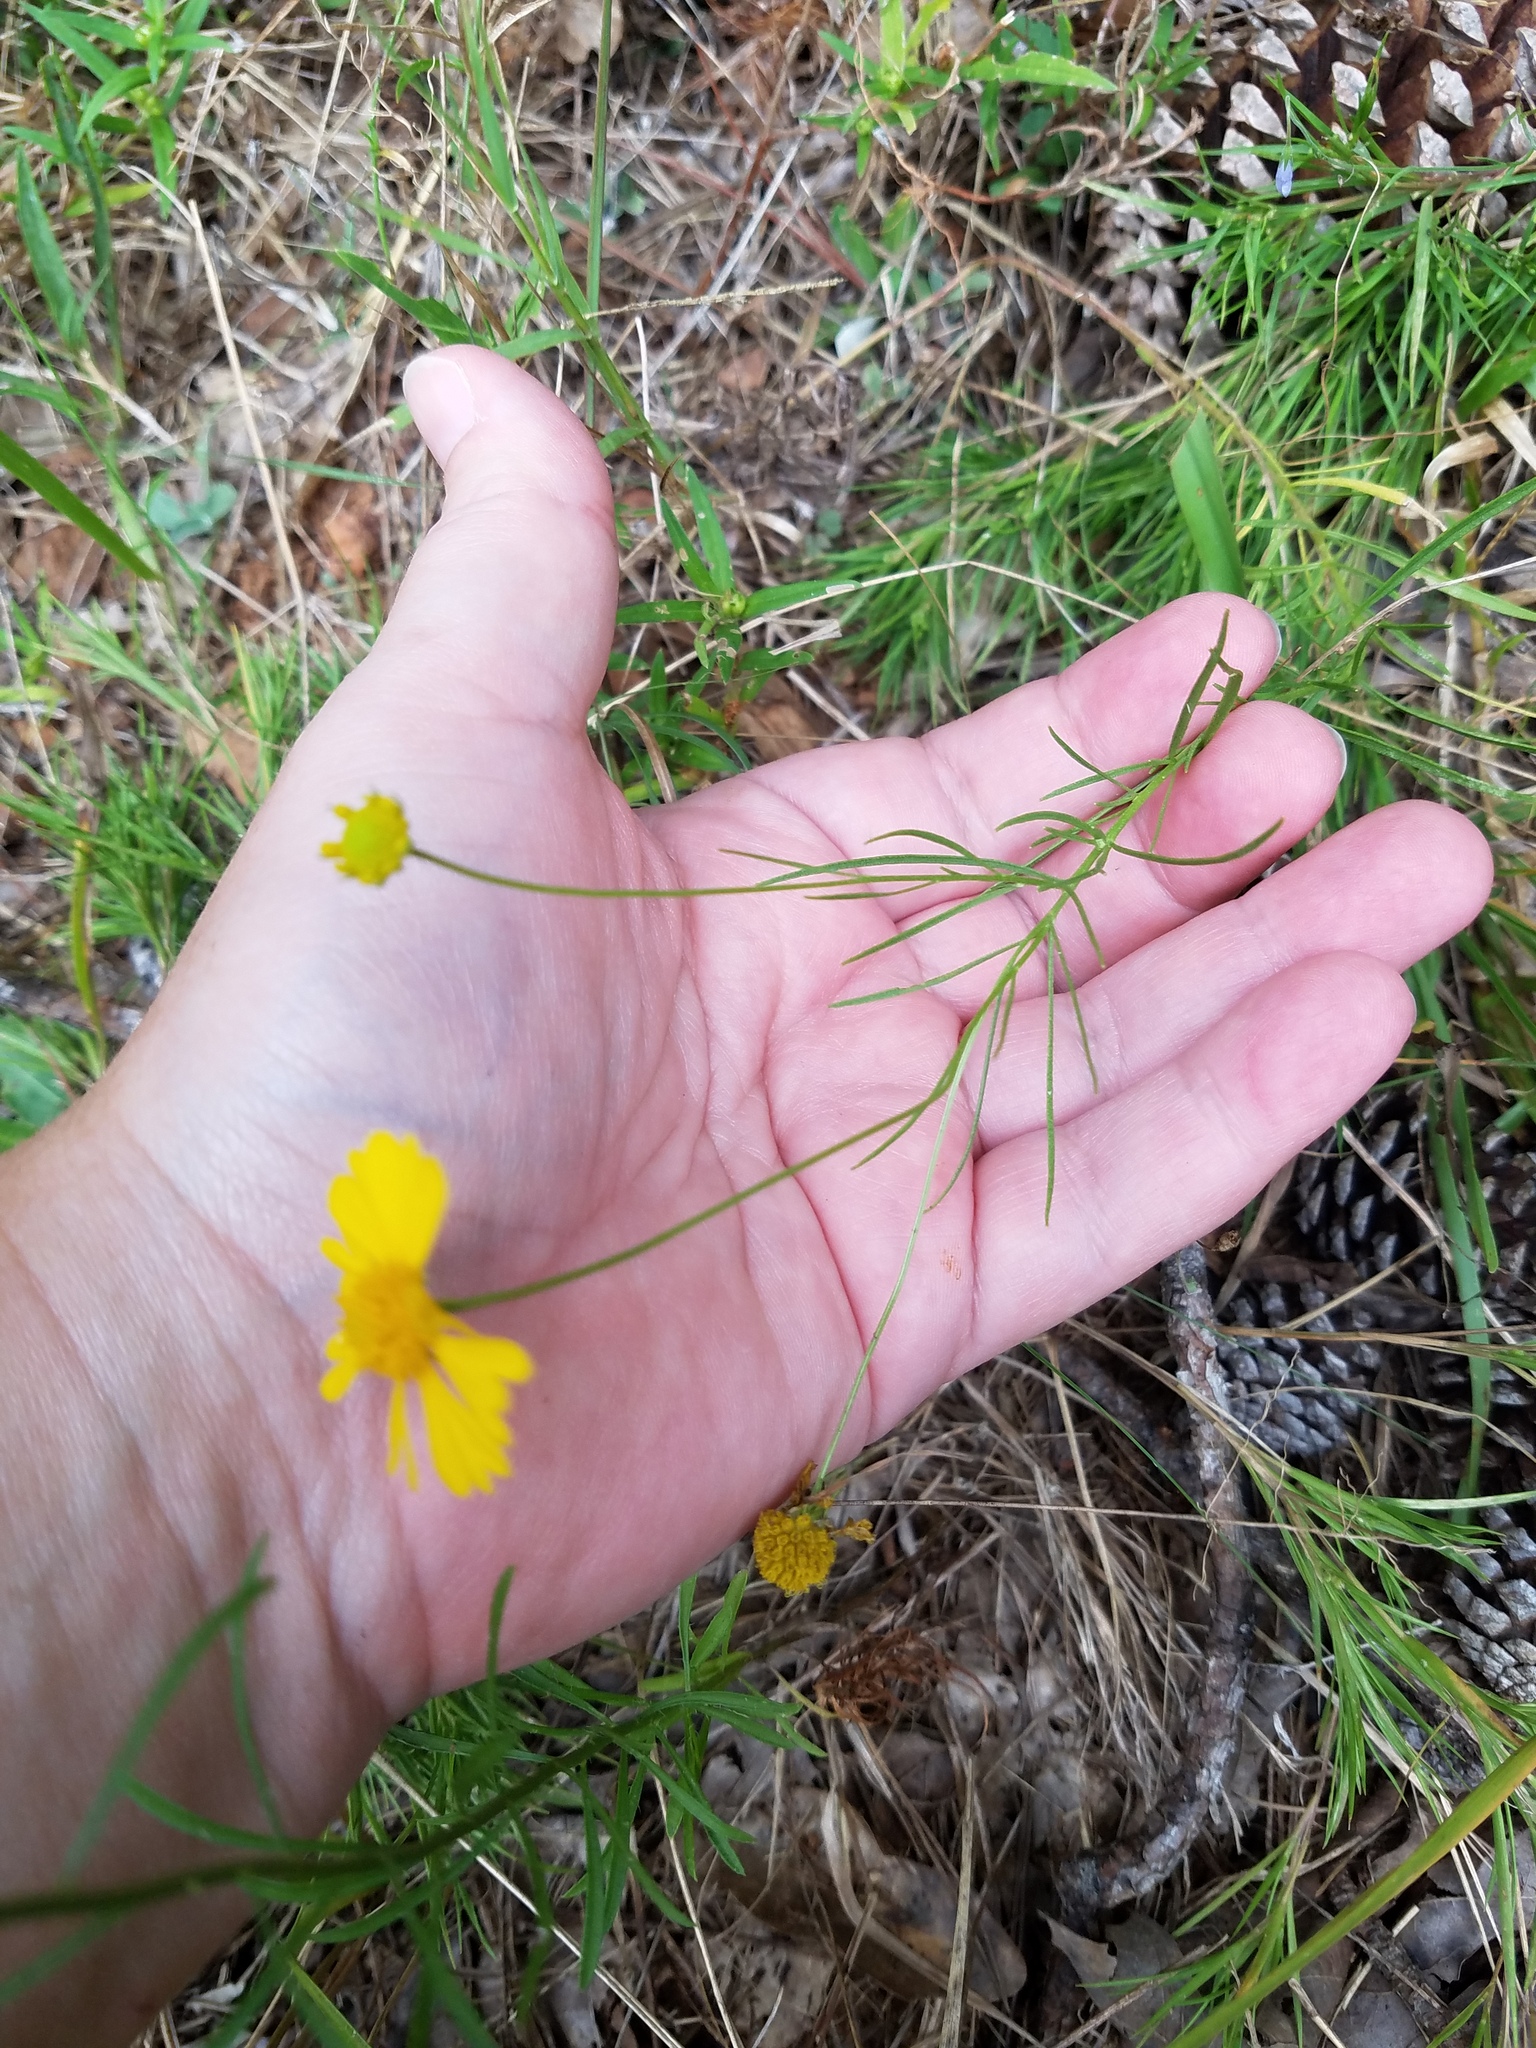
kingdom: Plantae
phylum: Tracheophyta
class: Magnoliopsida
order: Asterales
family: Asteraceae
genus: Helenium
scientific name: Helenium amarum
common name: Bitter sneezeweed
